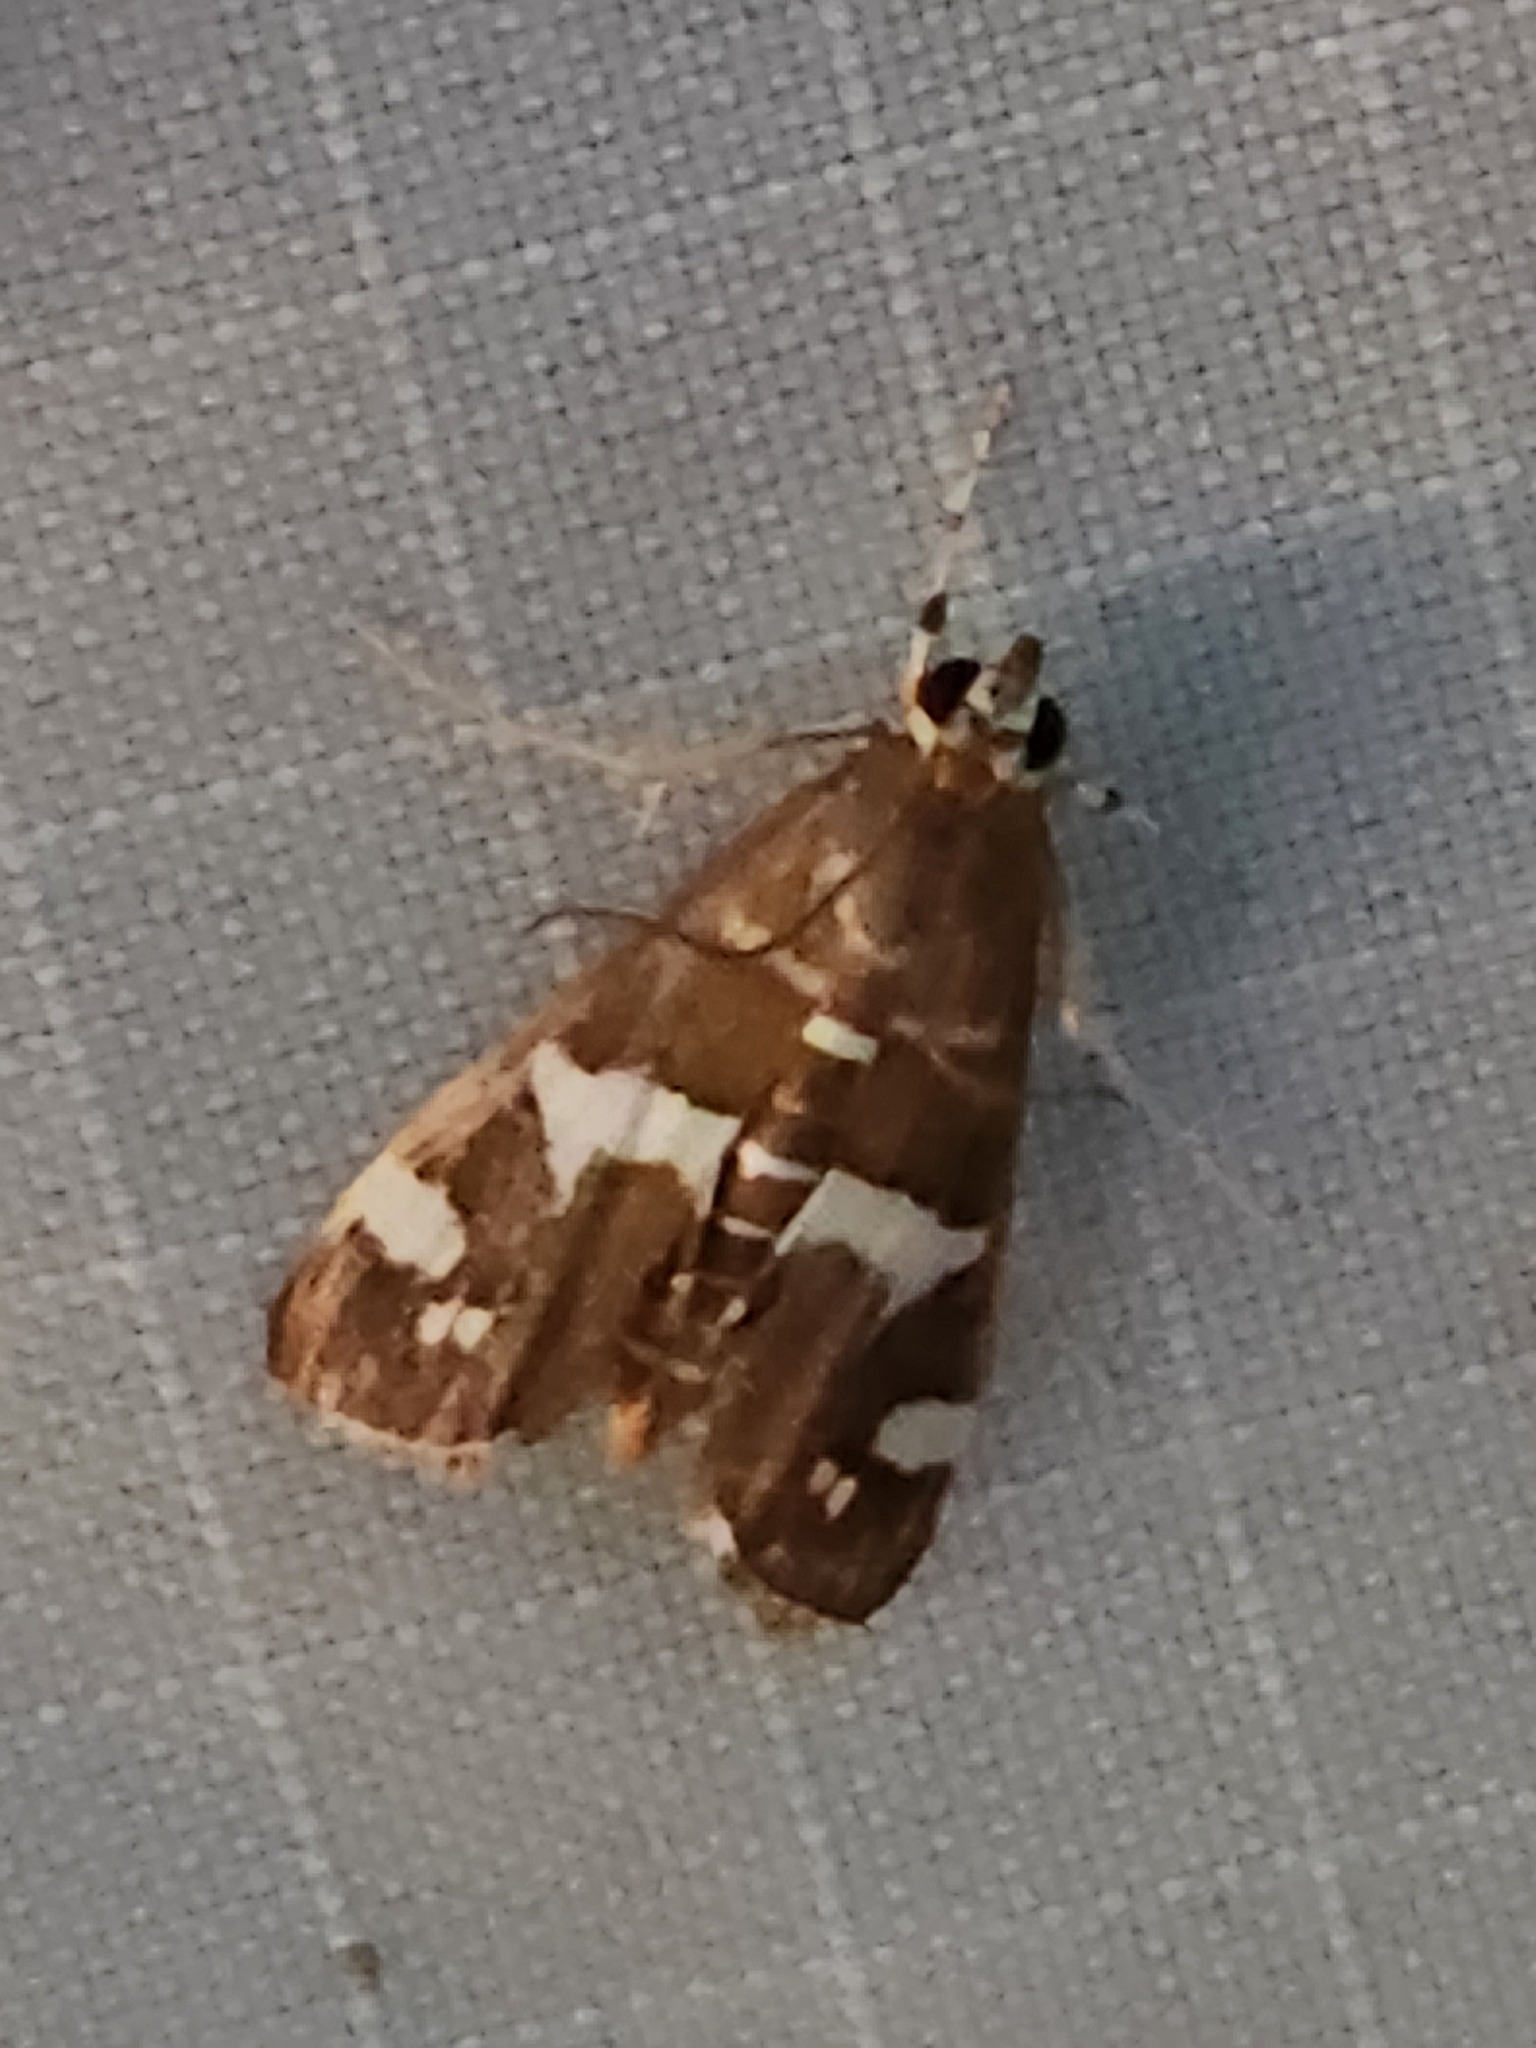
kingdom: Animalia
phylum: Arthropoda
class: Insecta
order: Lepidoptera
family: Crambidae
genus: Spoladea
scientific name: Spoladea recurvalis
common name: Beet webworm moth
